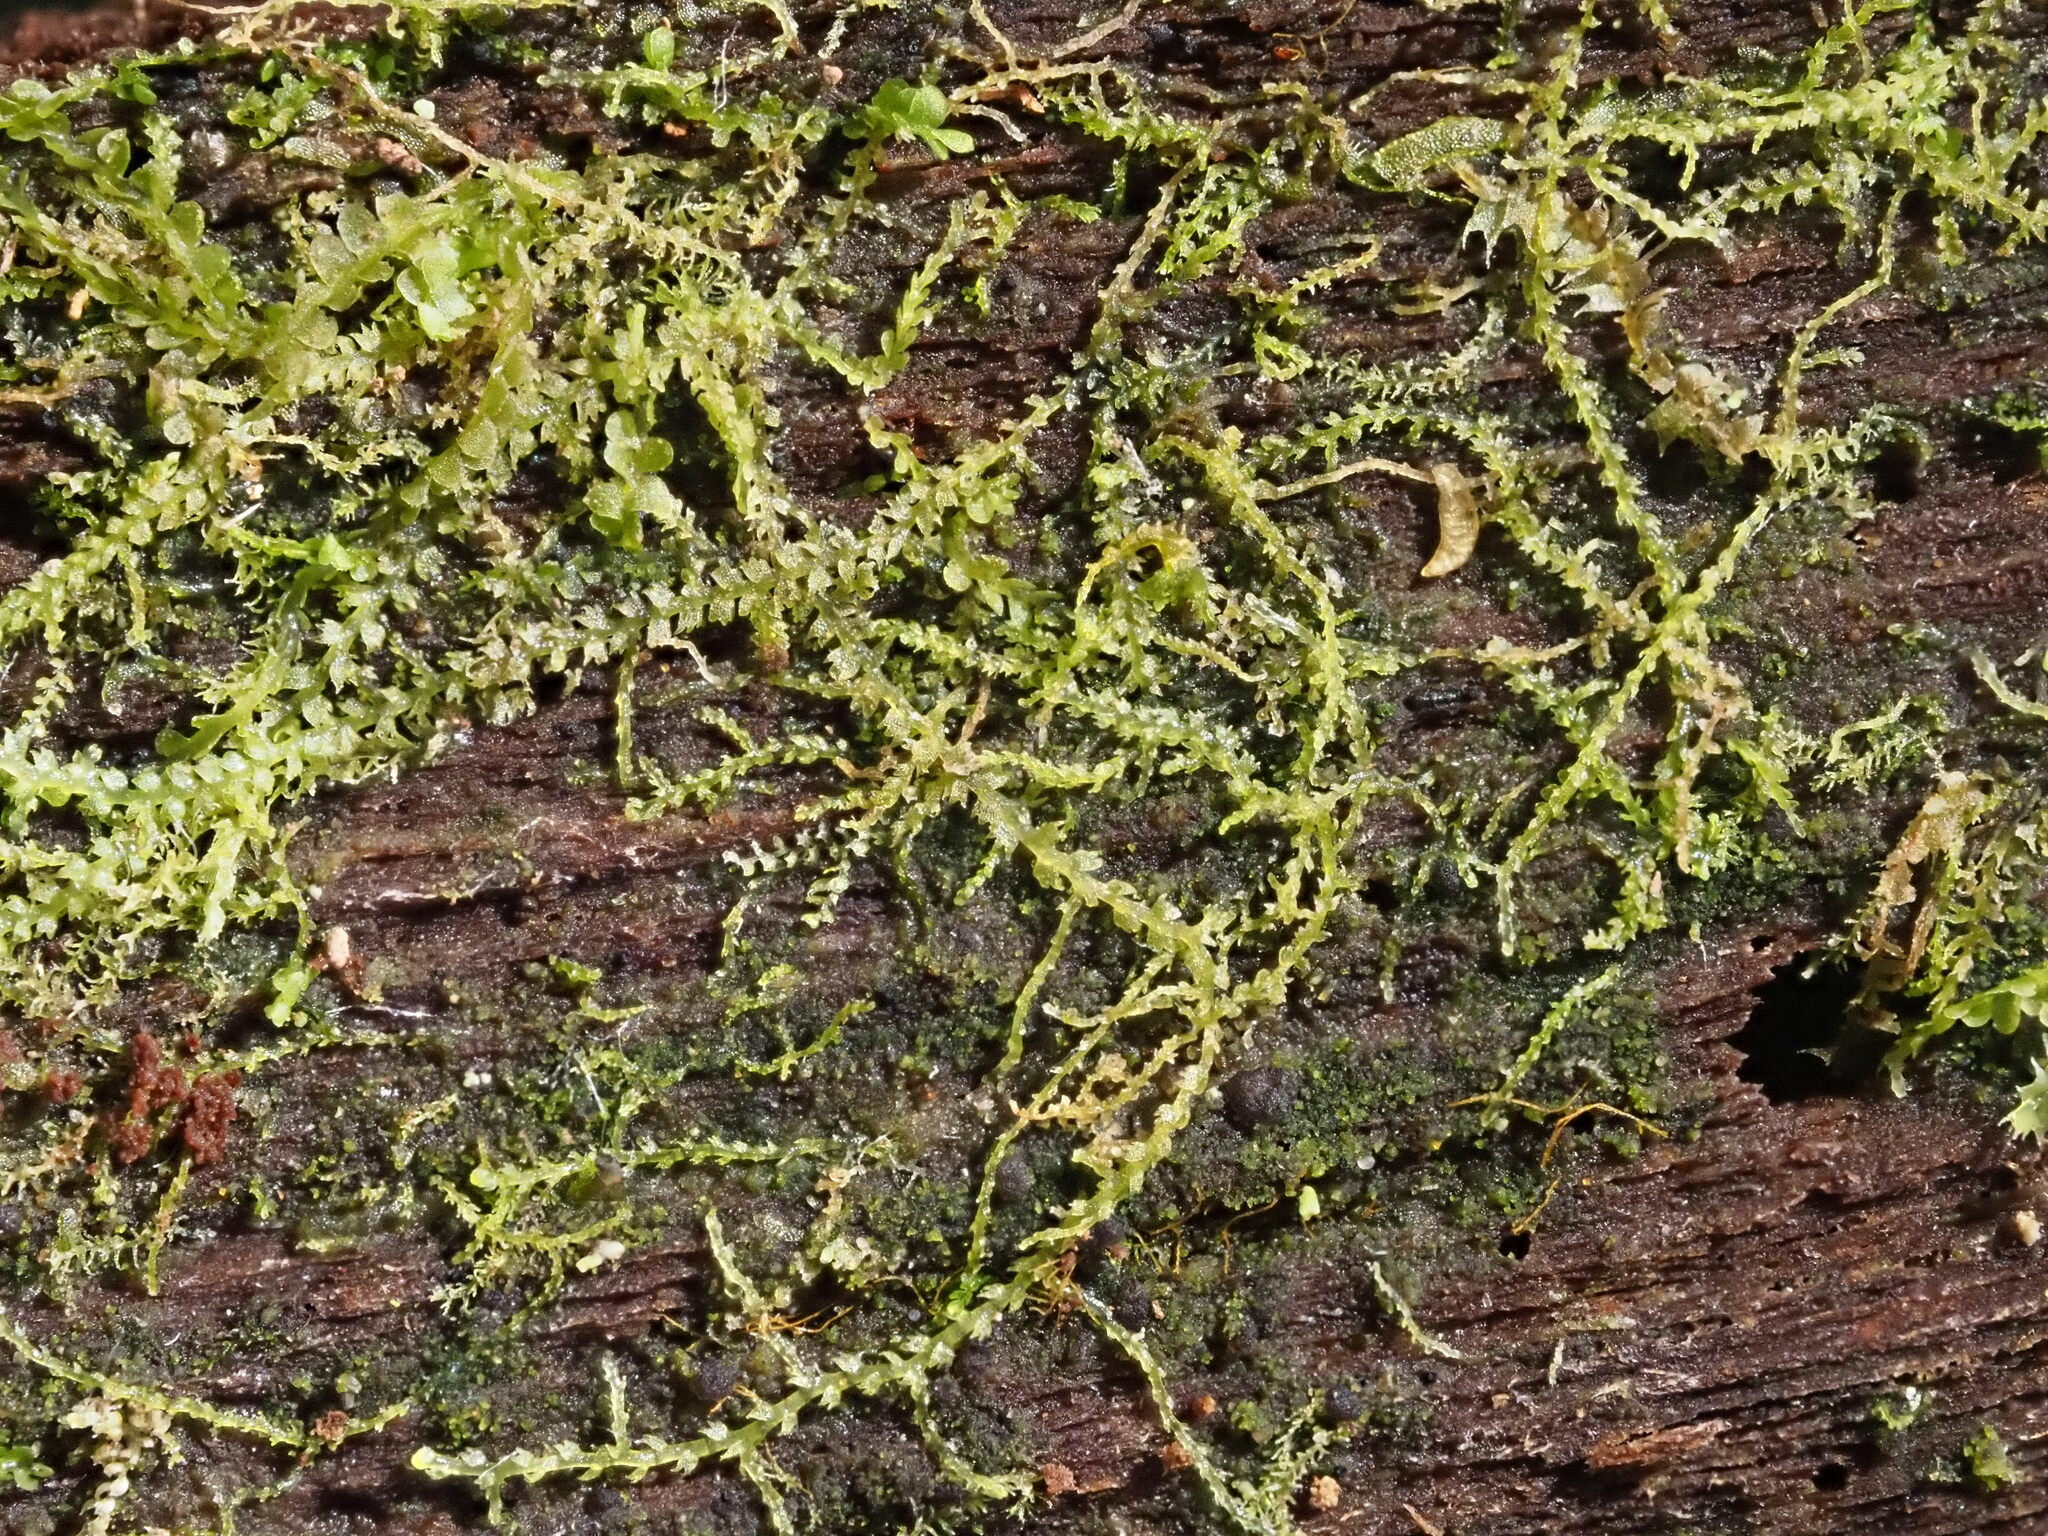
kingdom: Plantae
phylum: Marchantiophyta
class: Jungermanniopsida
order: Jungermanniales
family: Lepidoziaceae
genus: Lepidozia
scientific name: Lepidozia australis
